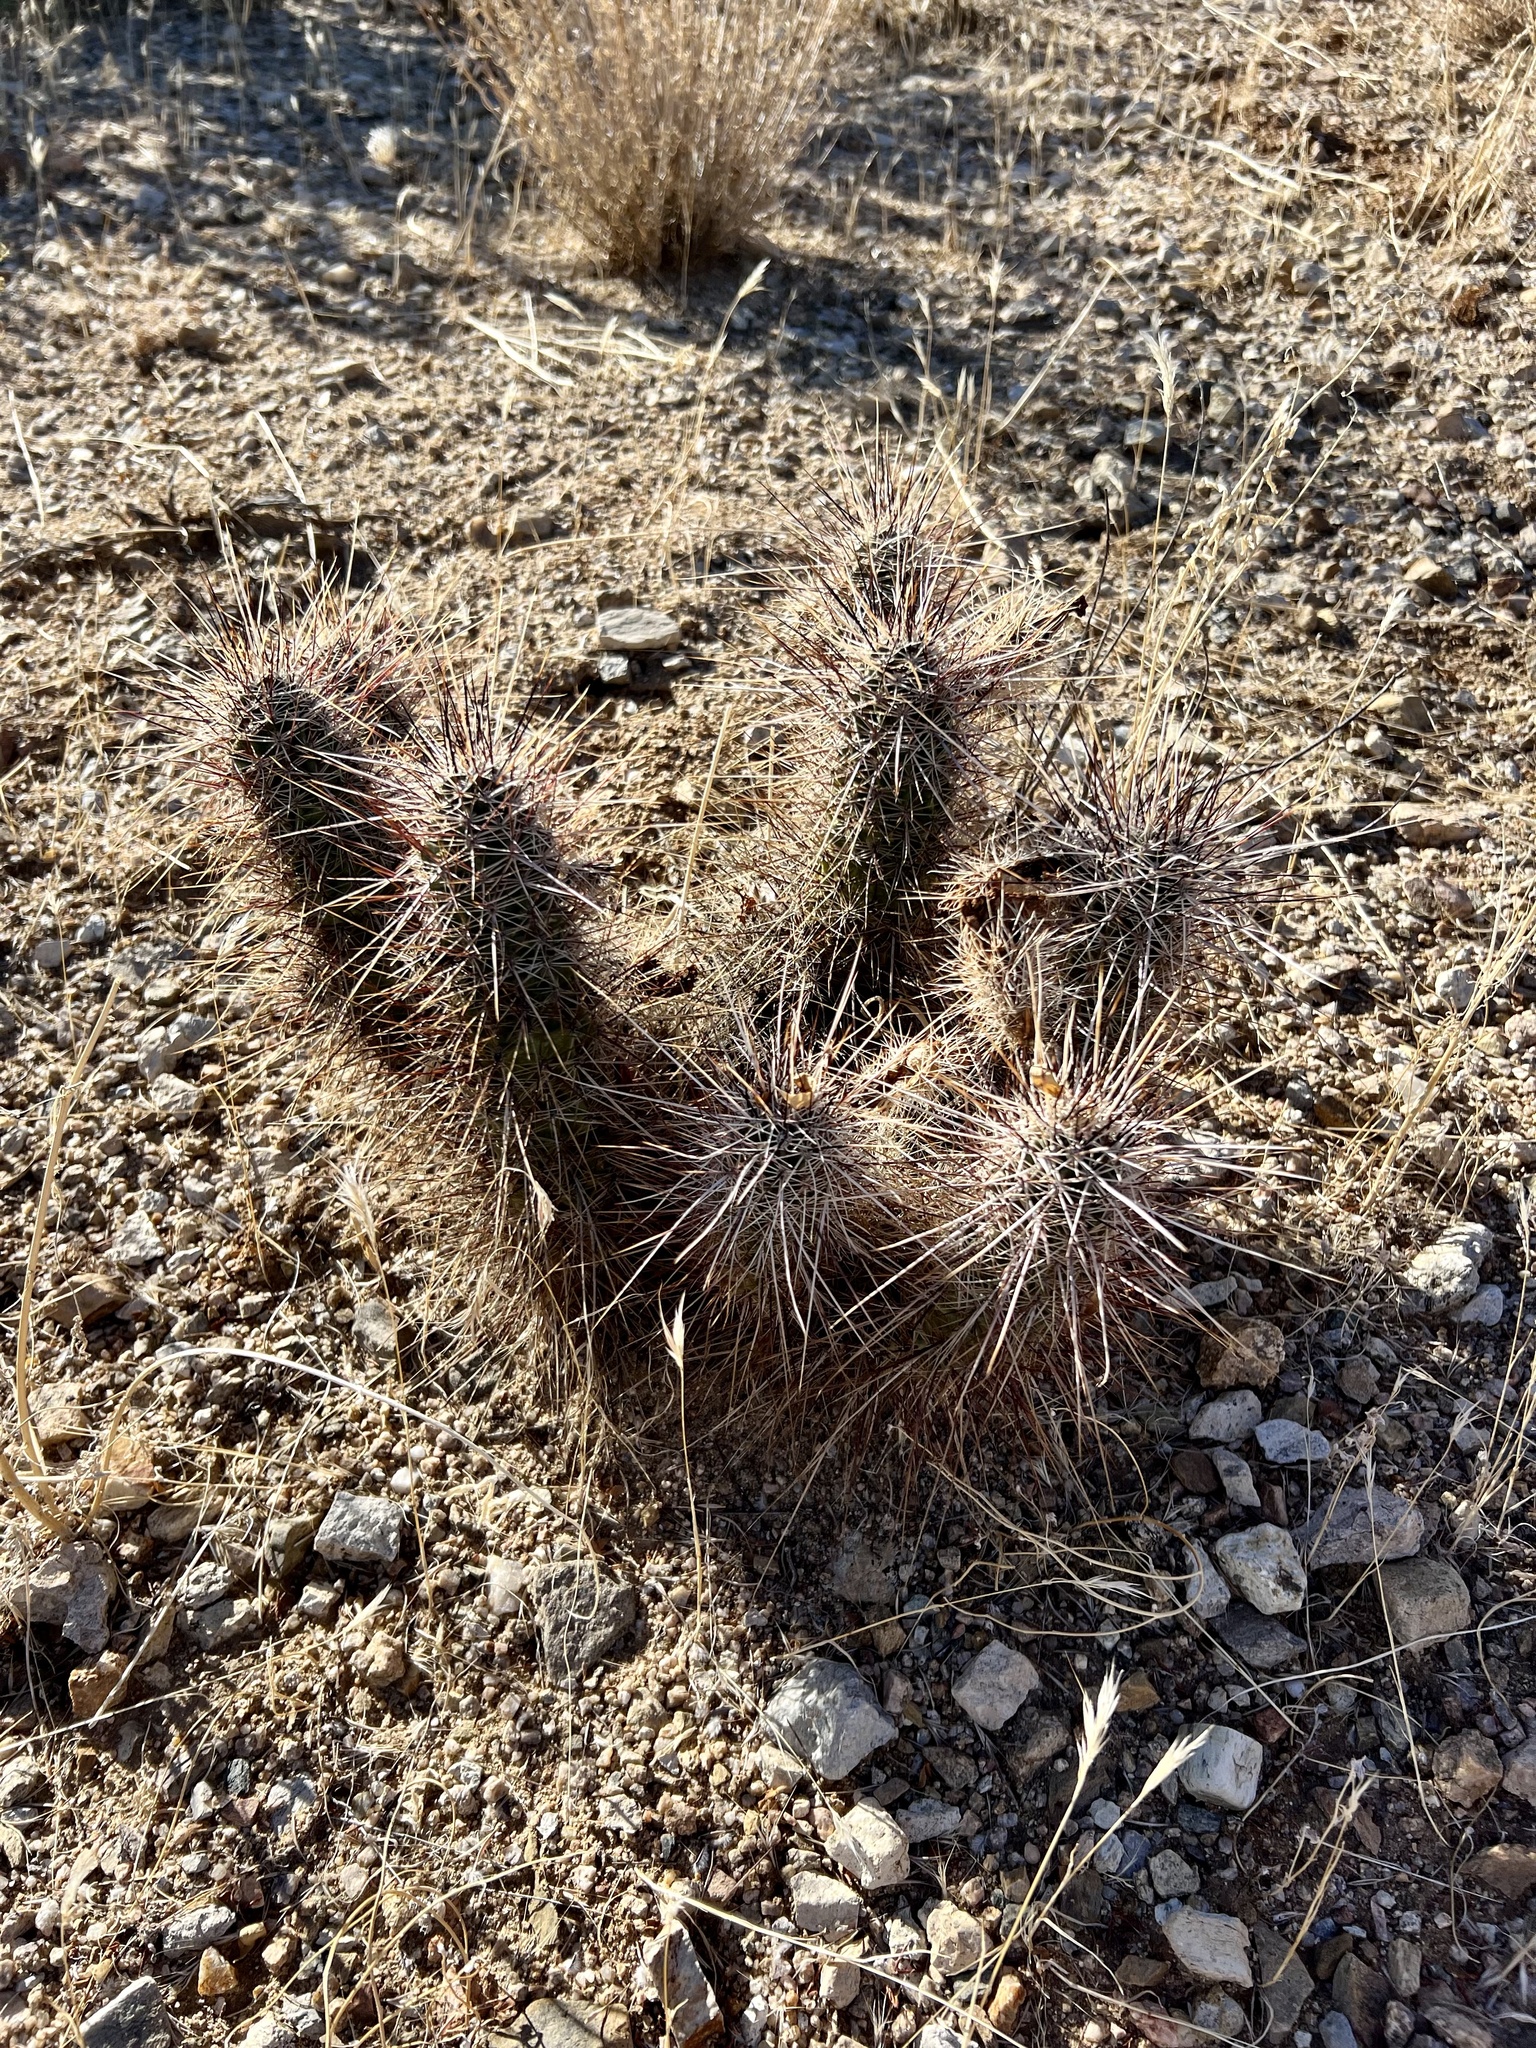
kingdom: Plantae
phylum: Tracheophyta
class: Magnoliopsida
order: Caryophyllales
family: Cactaceae
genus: Echinocereus
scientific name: Echinocereus engelmannii
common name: Engelmann's hedgehog cactus
